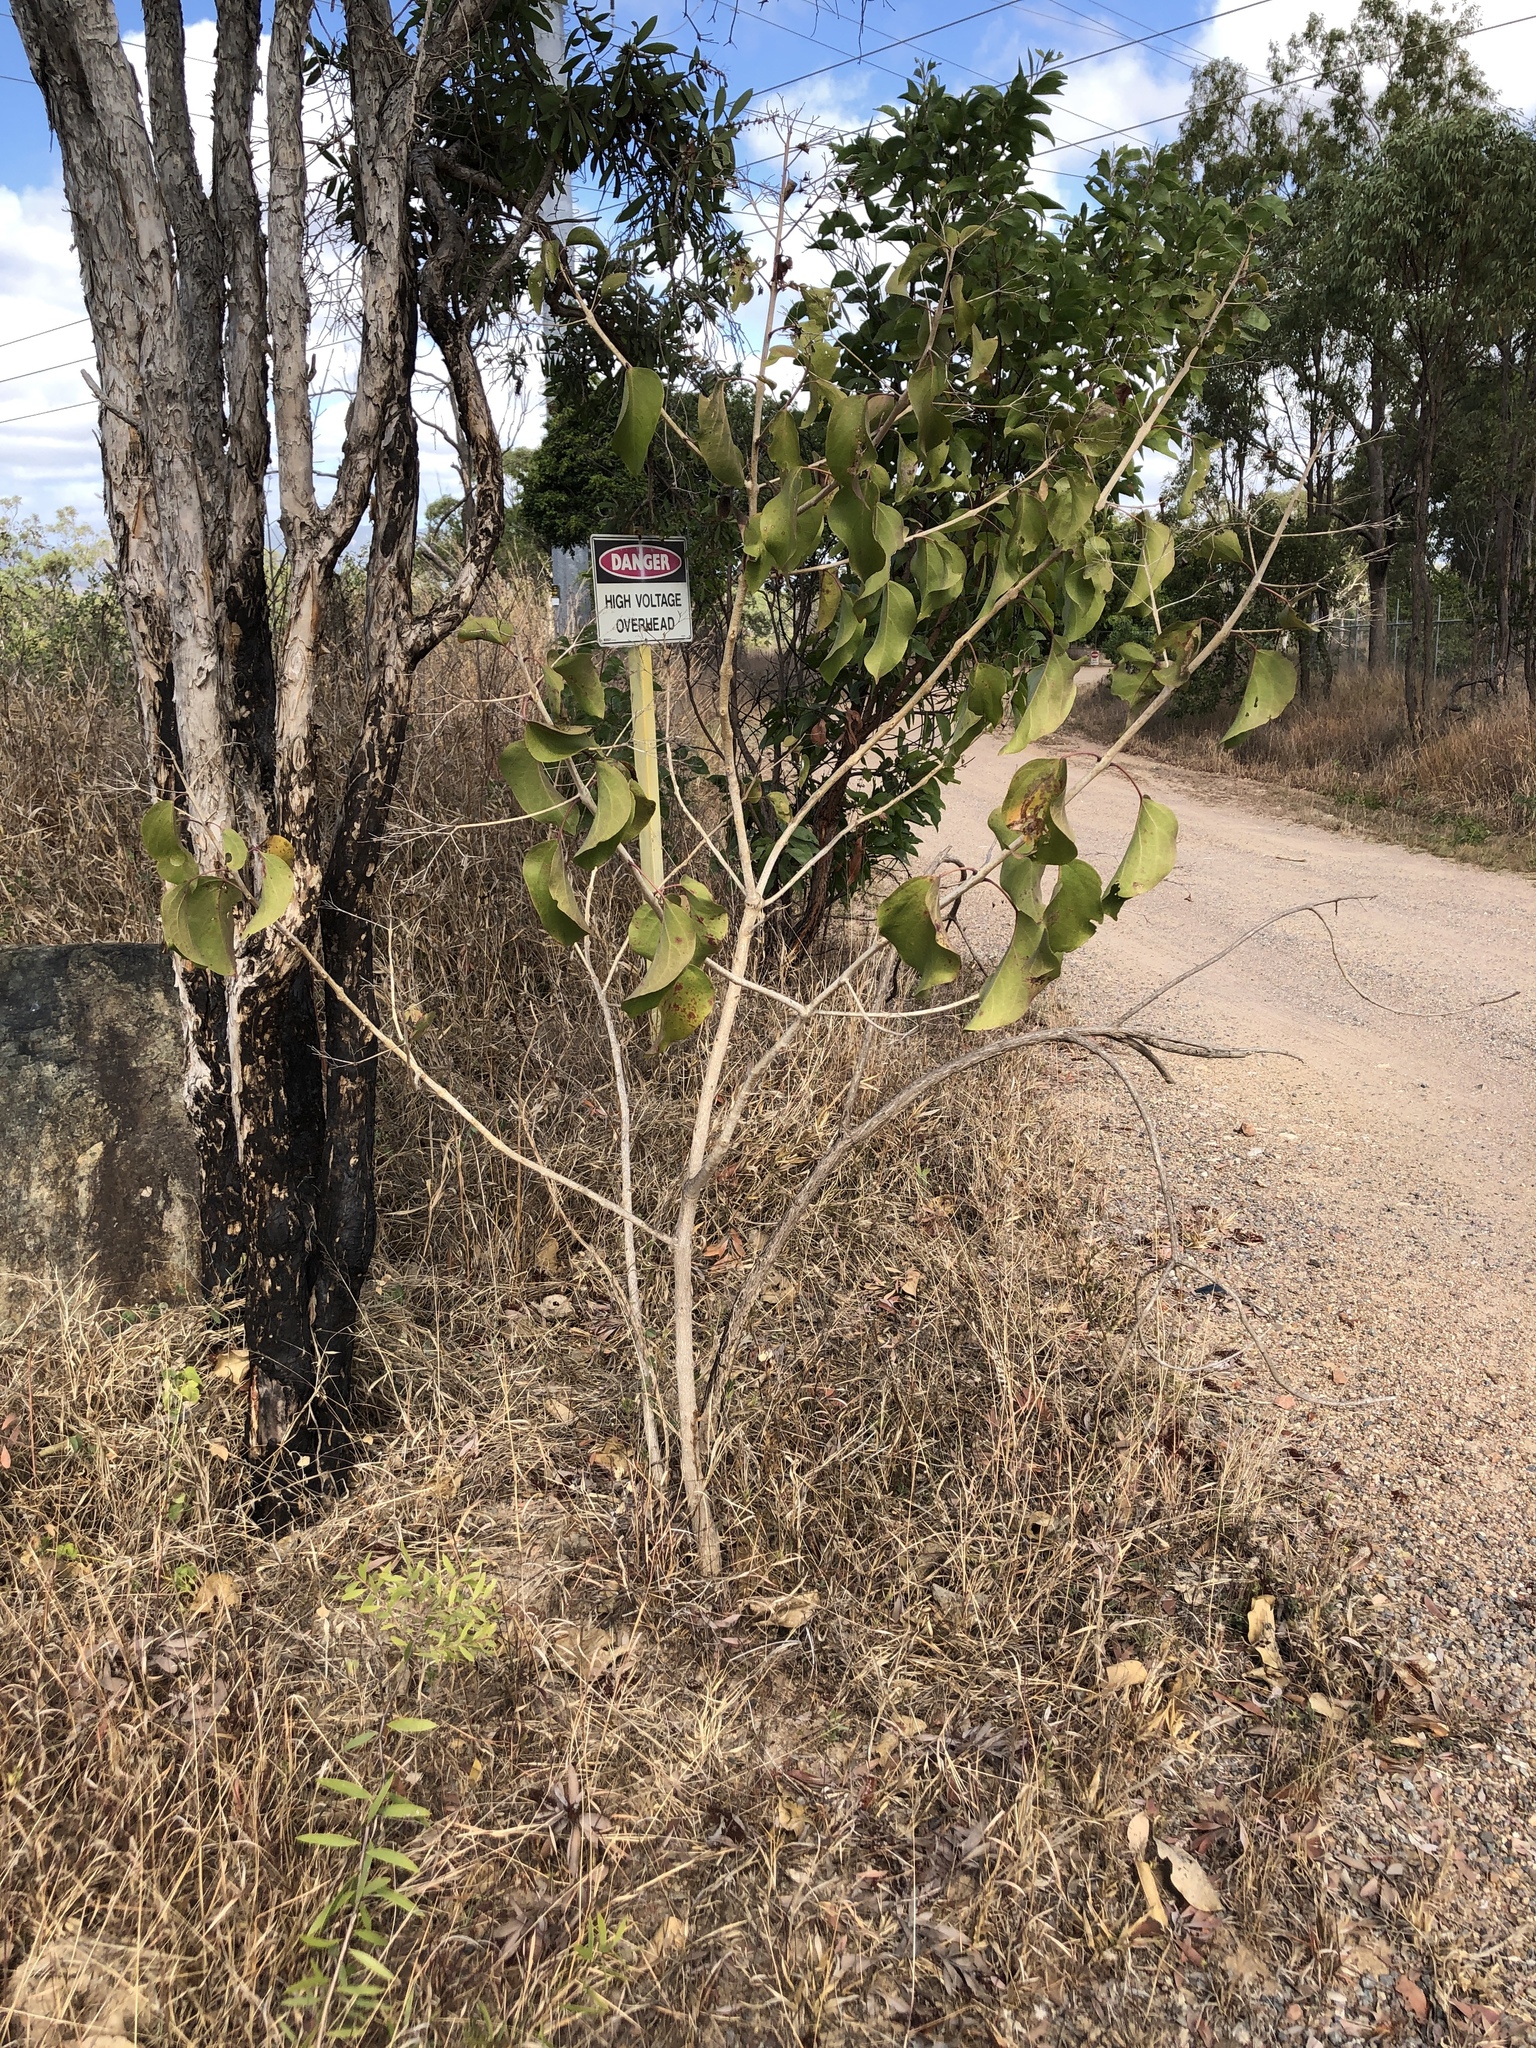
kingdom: Plantae
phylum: Tracheophyta
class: Magnoliopsida
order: Lamiales
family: Lamiaceae
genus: Clerodendrum
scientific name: Clerodendrum floribundum
